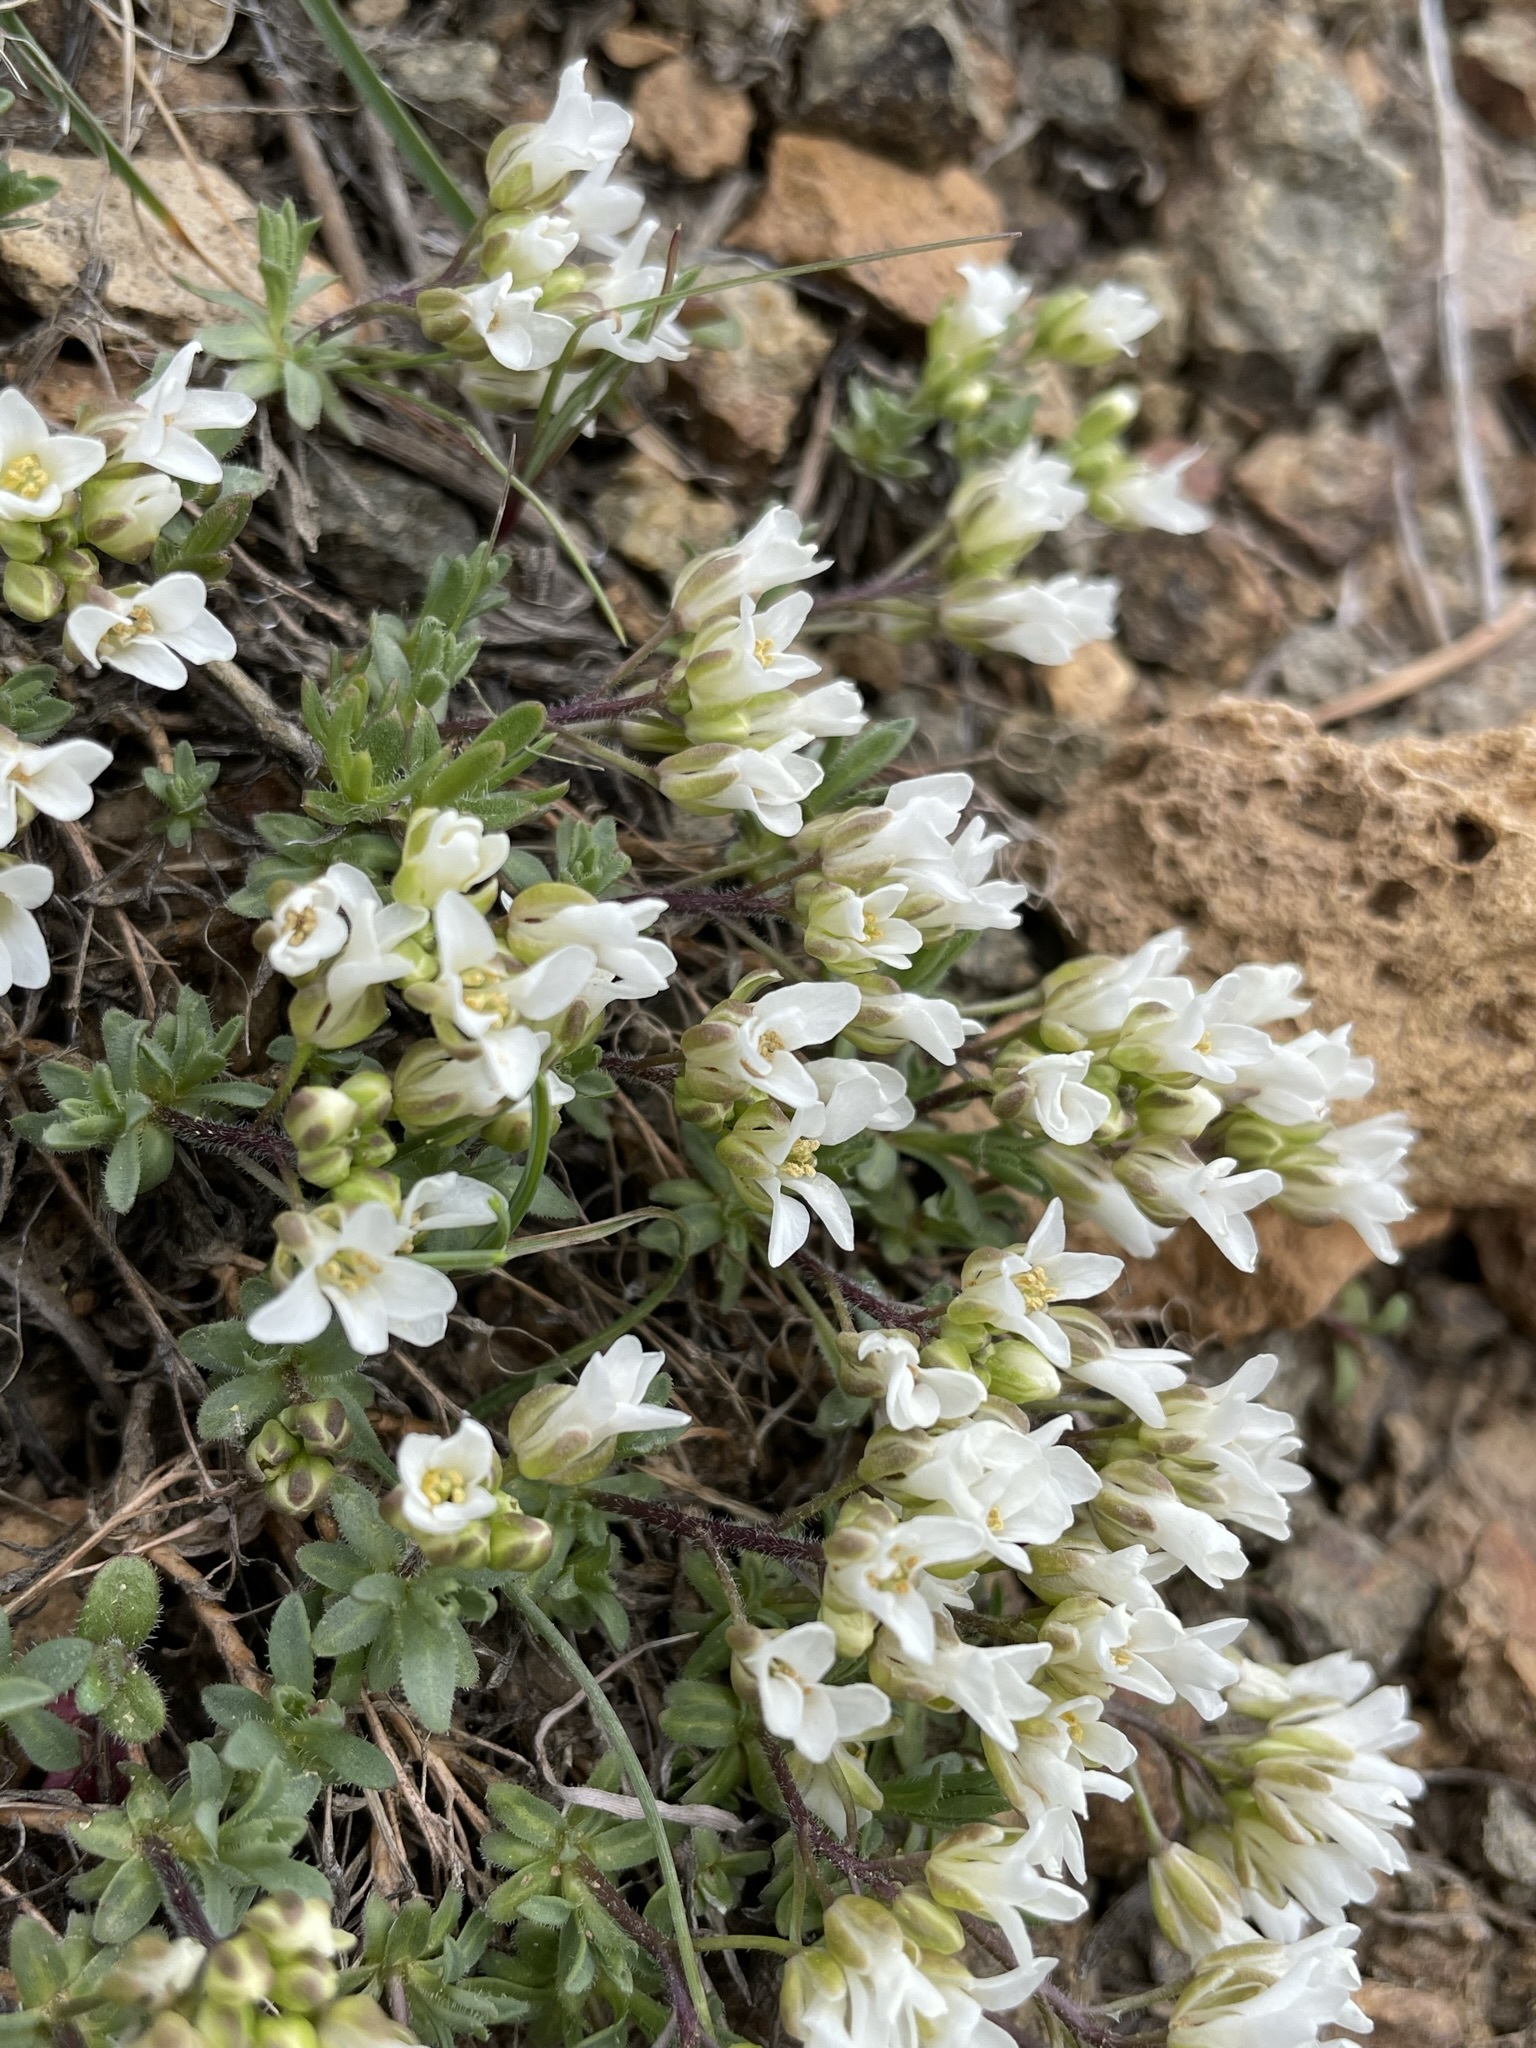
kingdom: Plantae
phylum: Tracheophyta
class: Magnoliopsida
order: Brassicales
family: Brassicaceae
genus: Cusickiella
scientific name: Cusickiella douglasii
